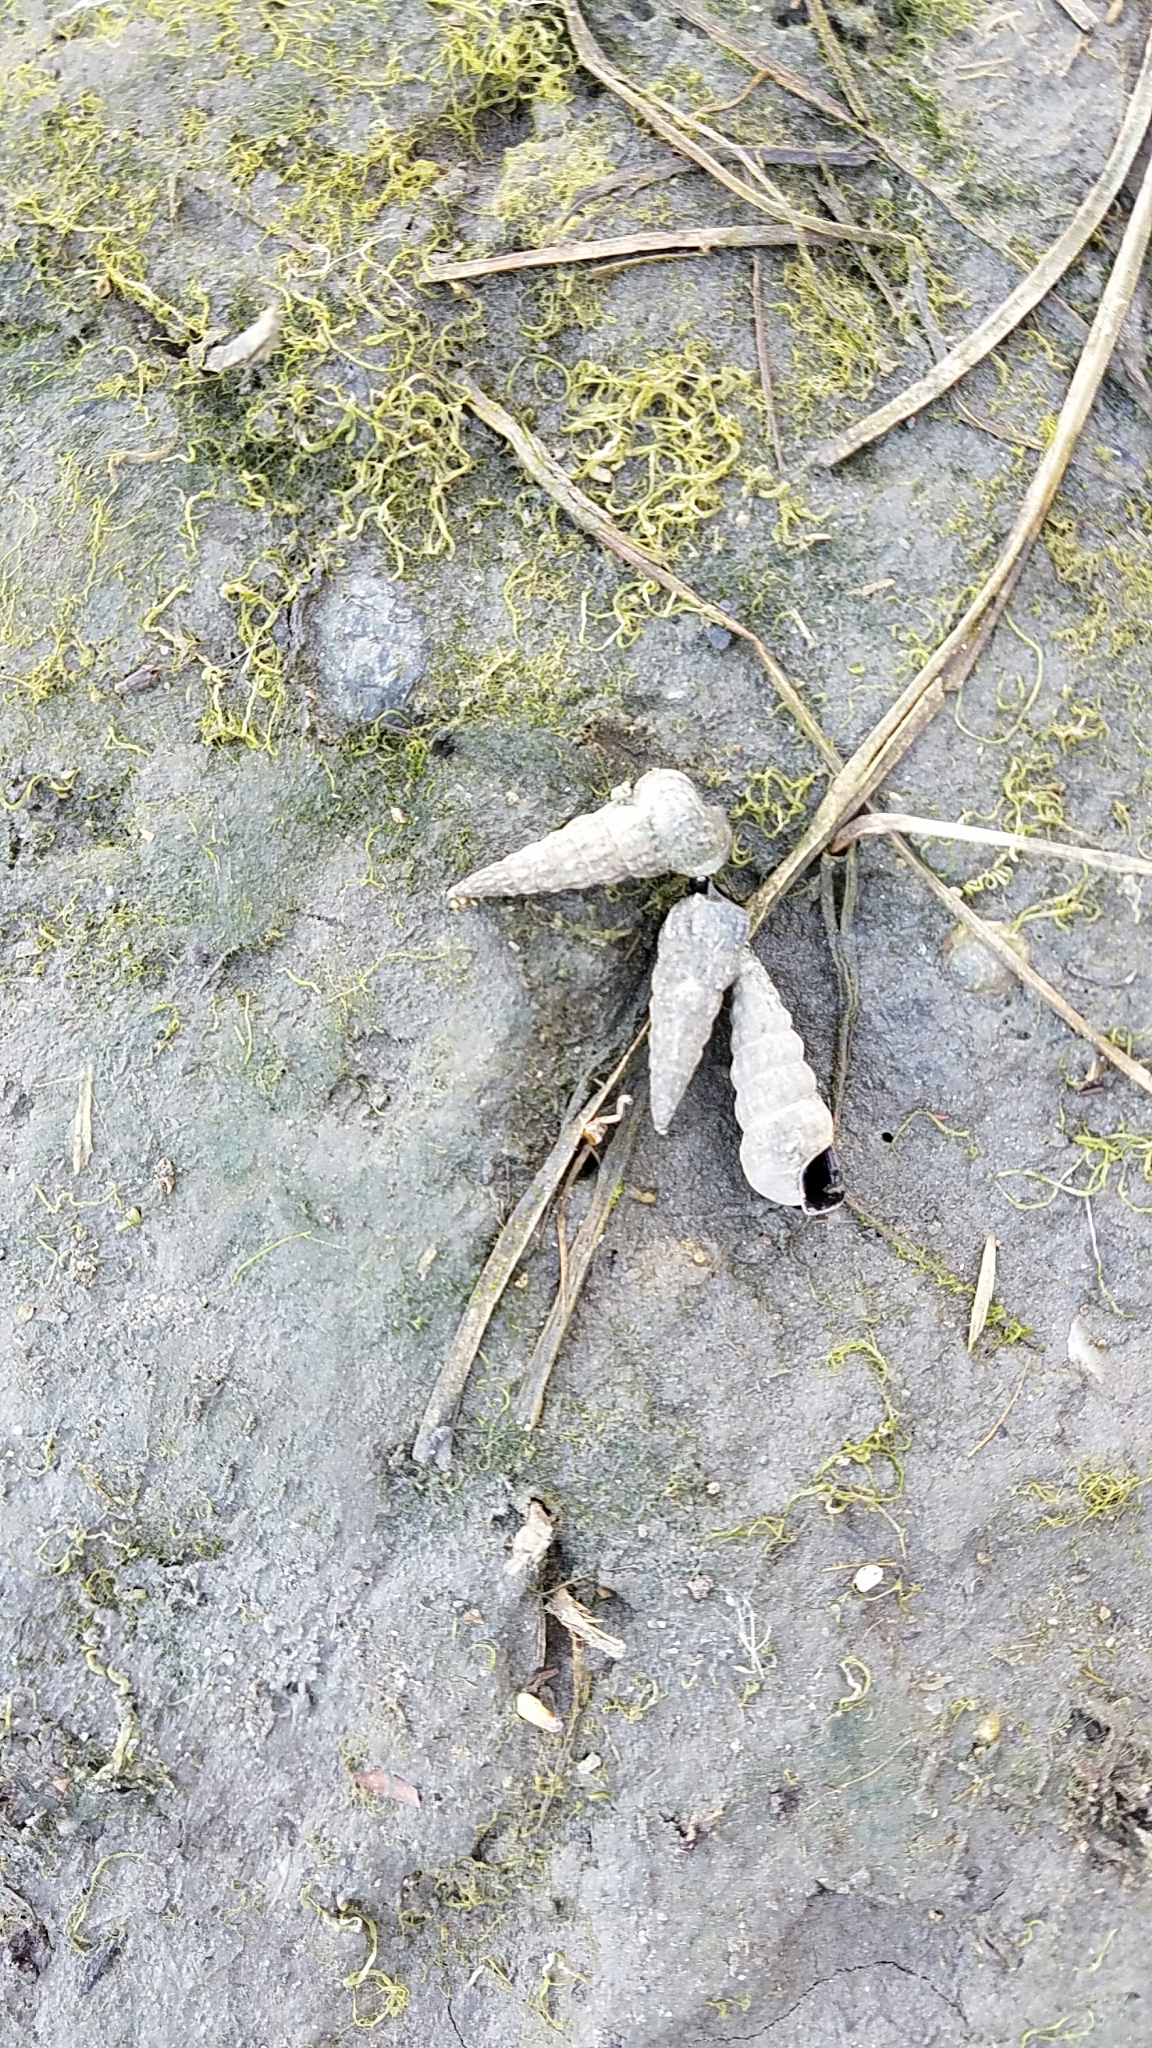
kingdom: Animalia
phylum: Mollusca
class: Gastropoda
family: Potamididae
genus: Cerithideopsis
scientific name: Cerithideopsis californica
